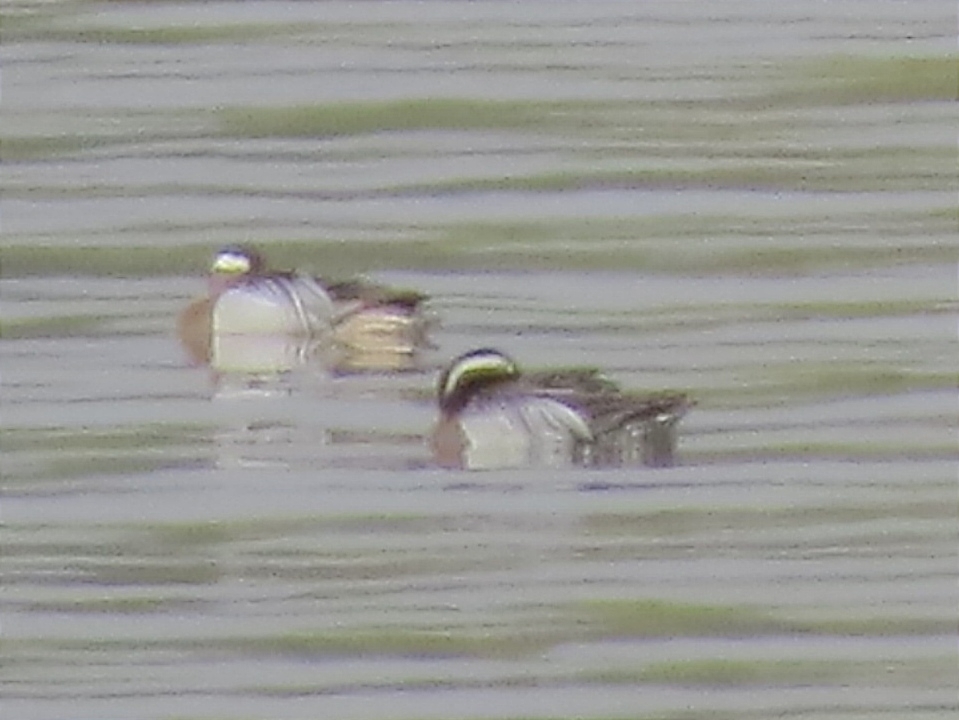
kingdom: Animalia
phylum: Chordata
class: Aves
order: Anseriformes
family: Anatidae
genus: Spatula
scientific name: Spatula querquedula
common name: Garganey
